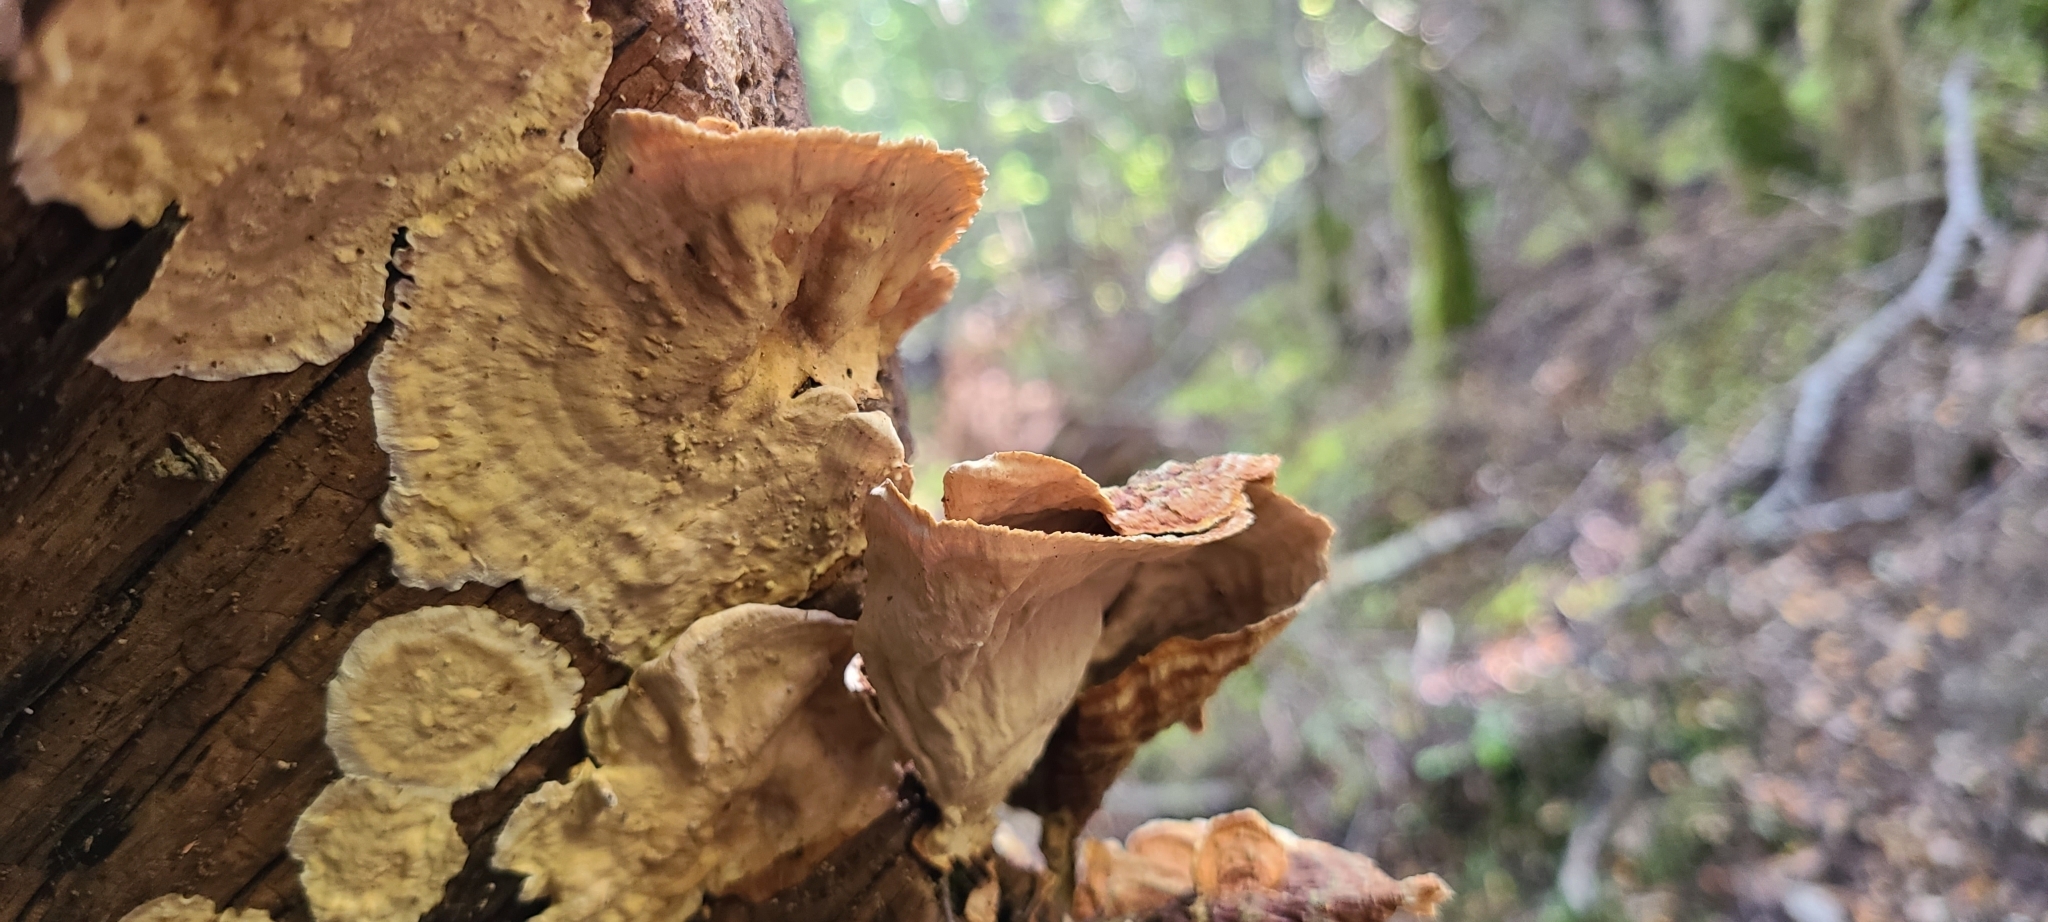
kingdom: Fungi
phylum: Basidiomycota
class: Agaricomycetes
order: Russulales
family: Stereaceae
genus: Stereum
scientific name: Stereum versicolor
